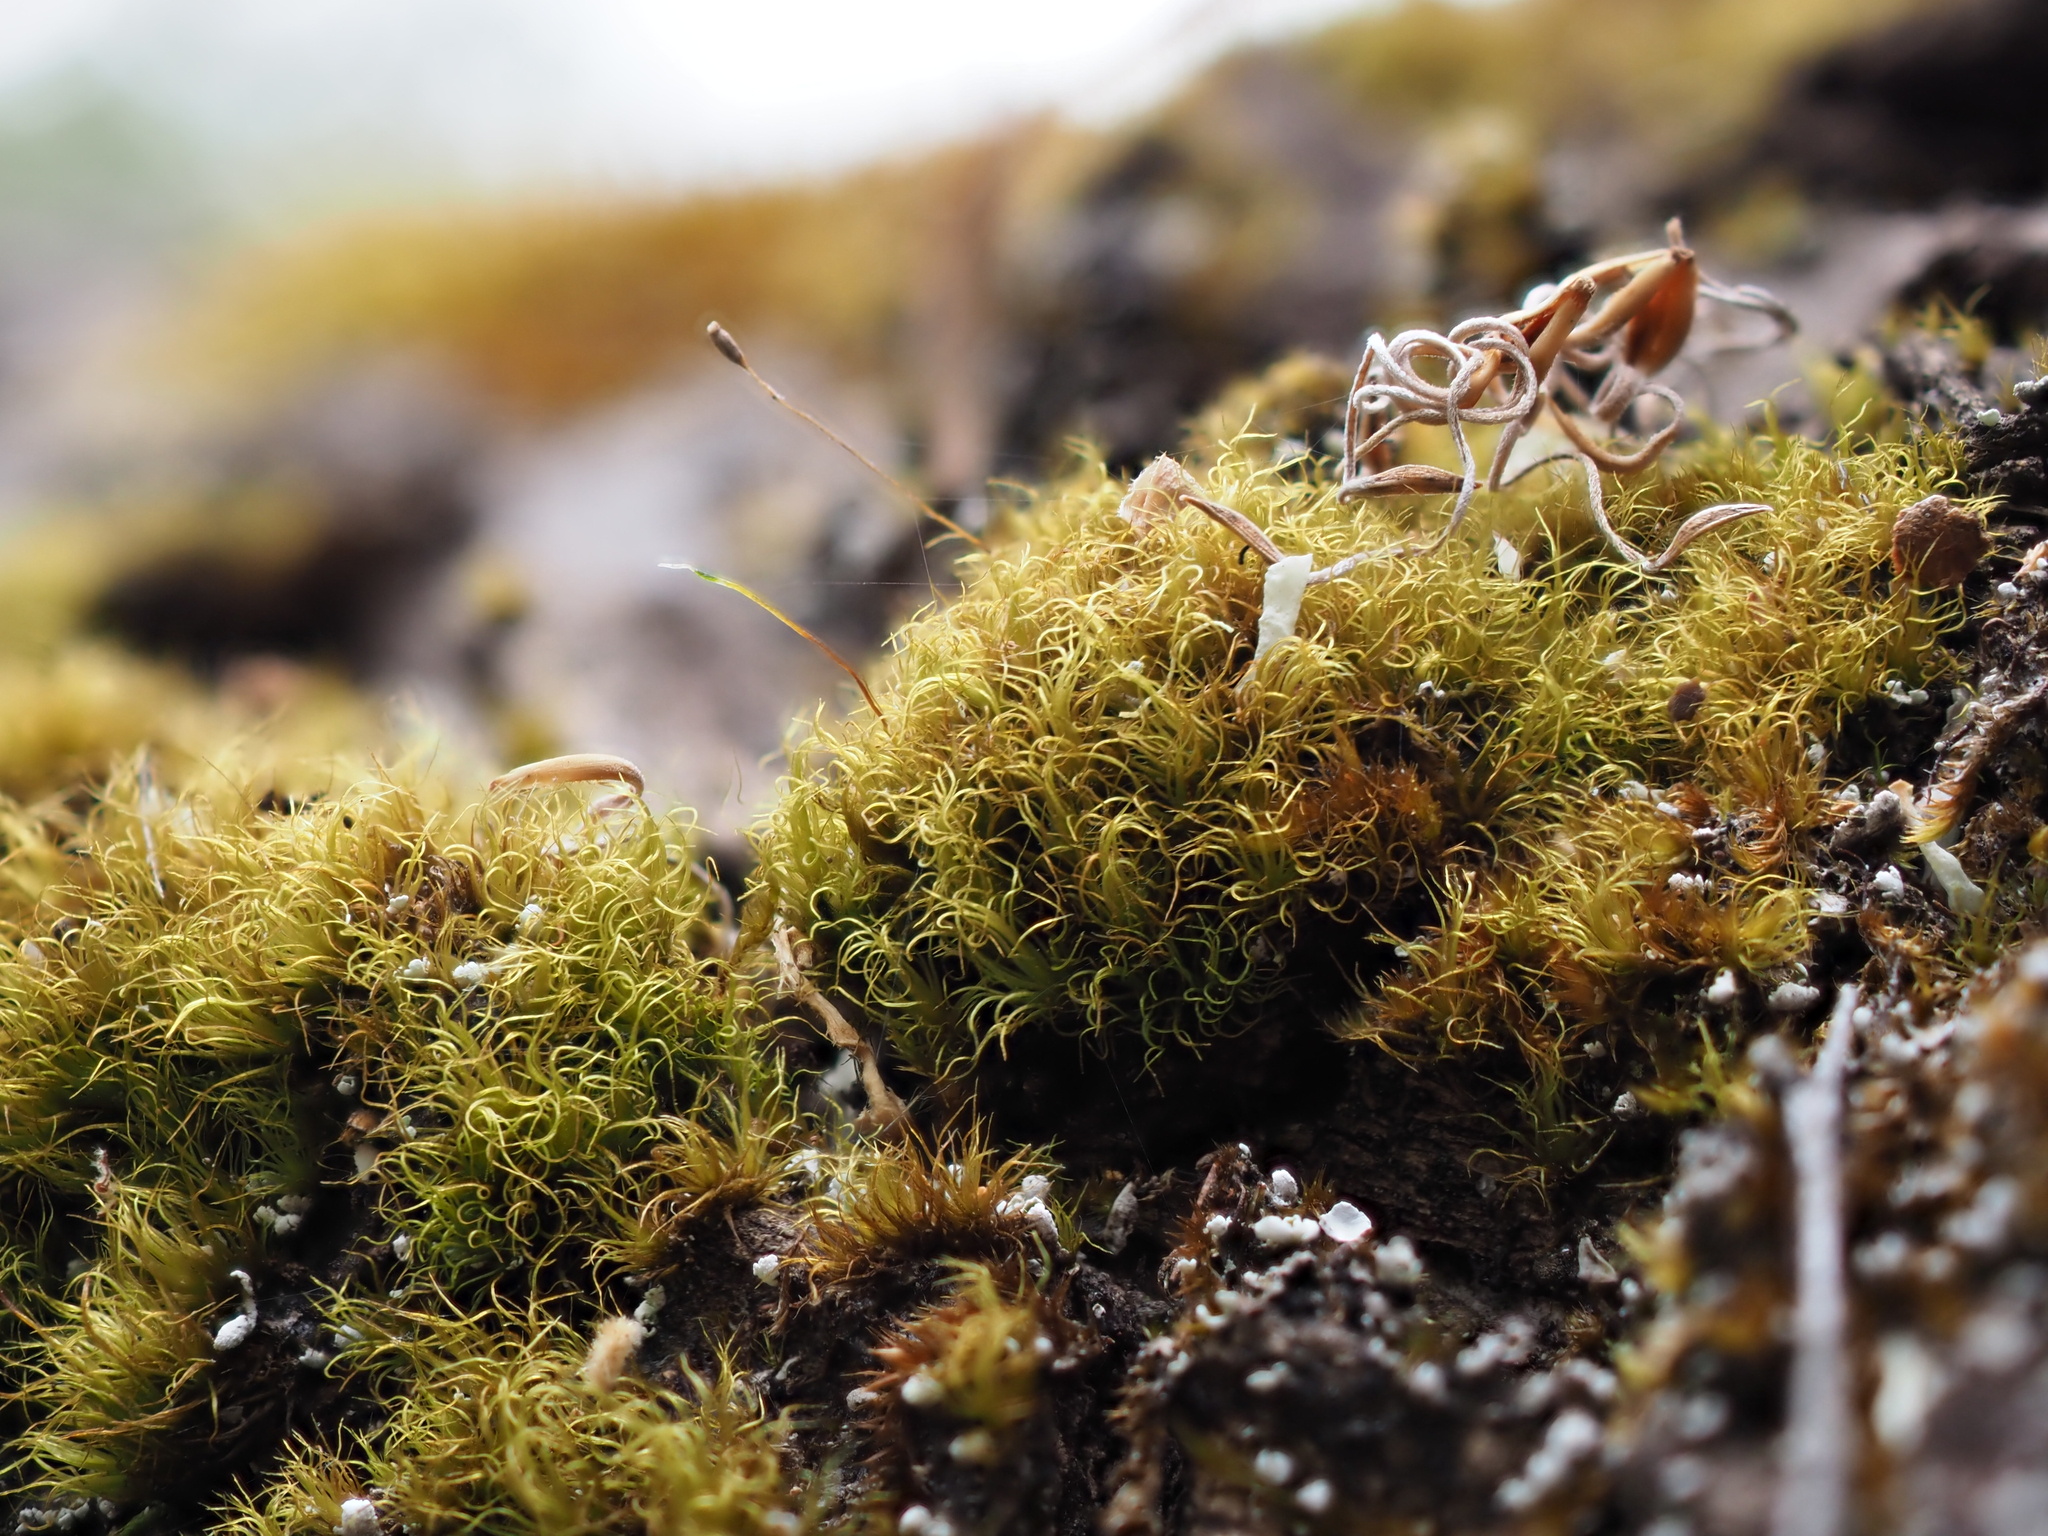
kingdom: Plantae
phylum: Bryophyta
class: Bryopsida
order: Dicranales
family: Dicranaceae
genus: Dicranoloma
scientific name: Dicranoloma diaphanoneuron
